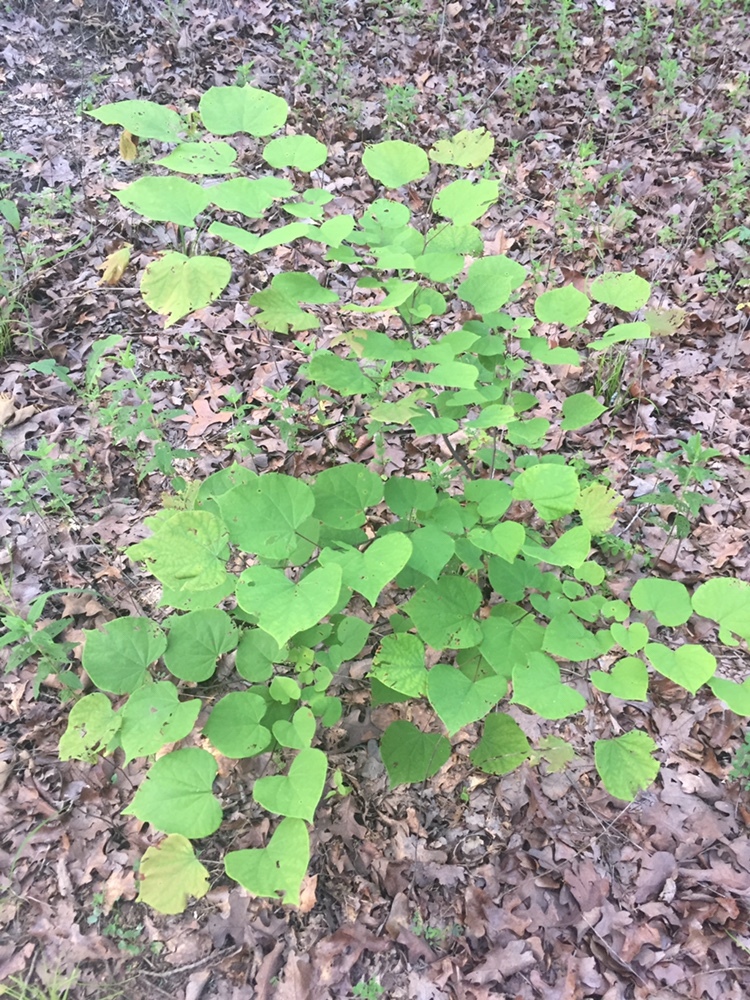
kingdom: Plantae
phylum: Tracheophyta
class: Magnoliopsida
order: Fabales
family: Fabaceae
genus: Cercis
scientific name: Cercis canadensis
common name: Eastern redbud
